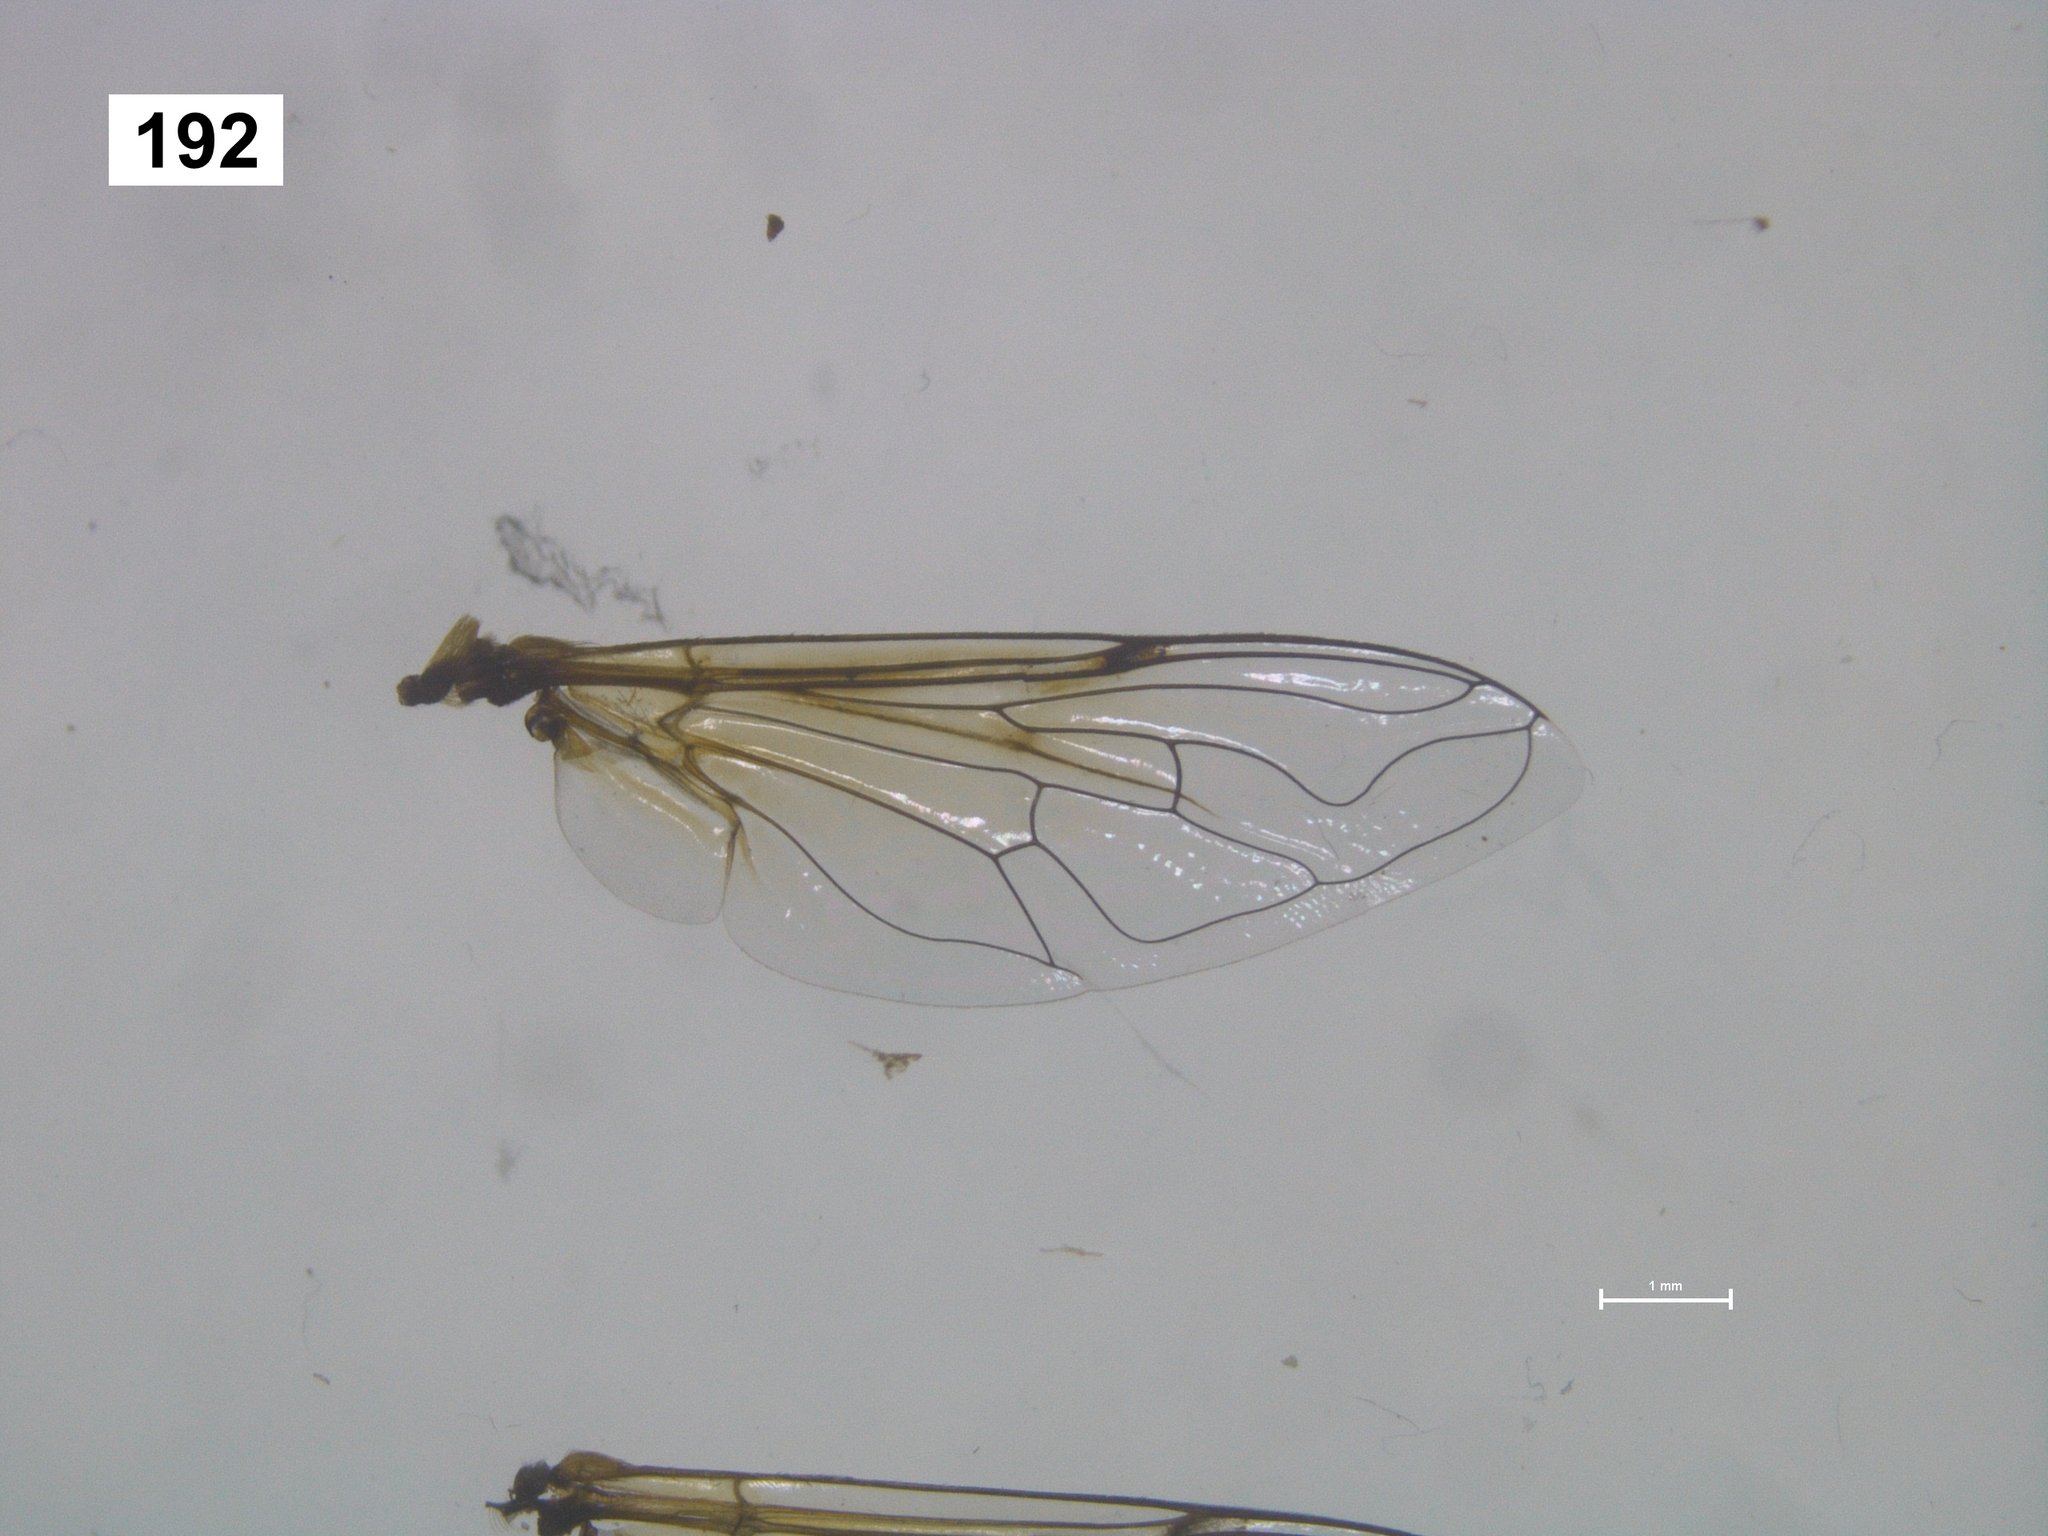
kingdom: Animalia
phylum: Arthropoda
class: Insecta
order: Diptera
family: Syrphidae
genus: Eristalis
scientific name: Eristalis arbustorum
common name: Hover fly
